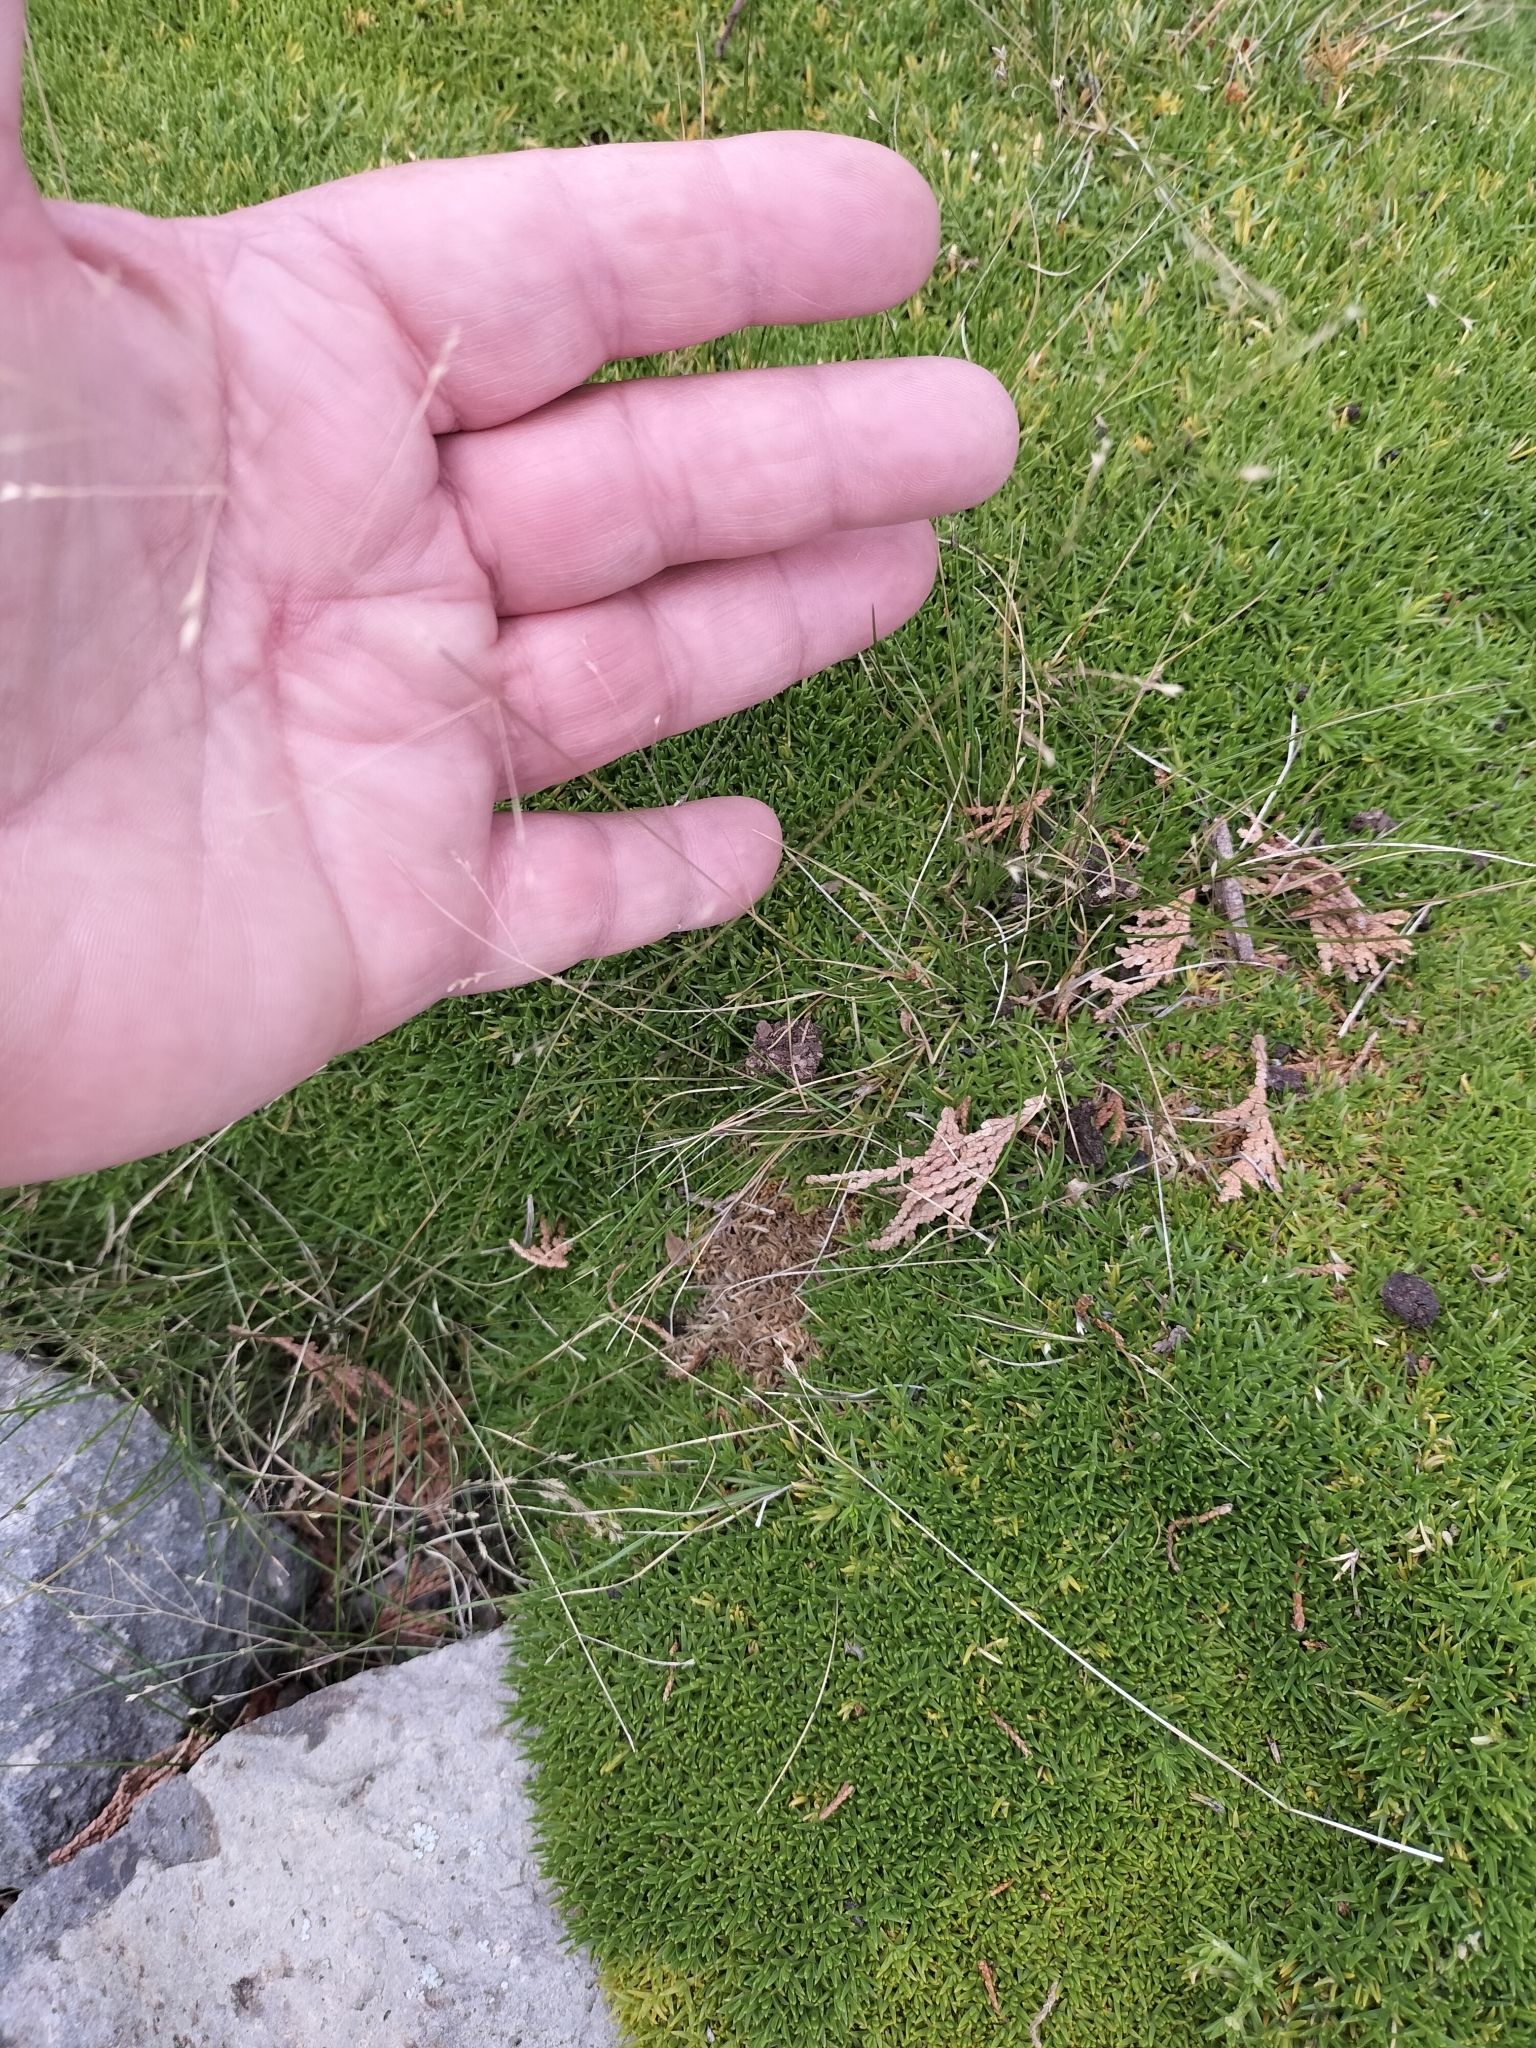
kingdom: Plantae
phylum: Tracheophyta
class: Liliopsida
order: Poales
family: Poaceae
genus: Poa
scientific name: Poa imbecilla
